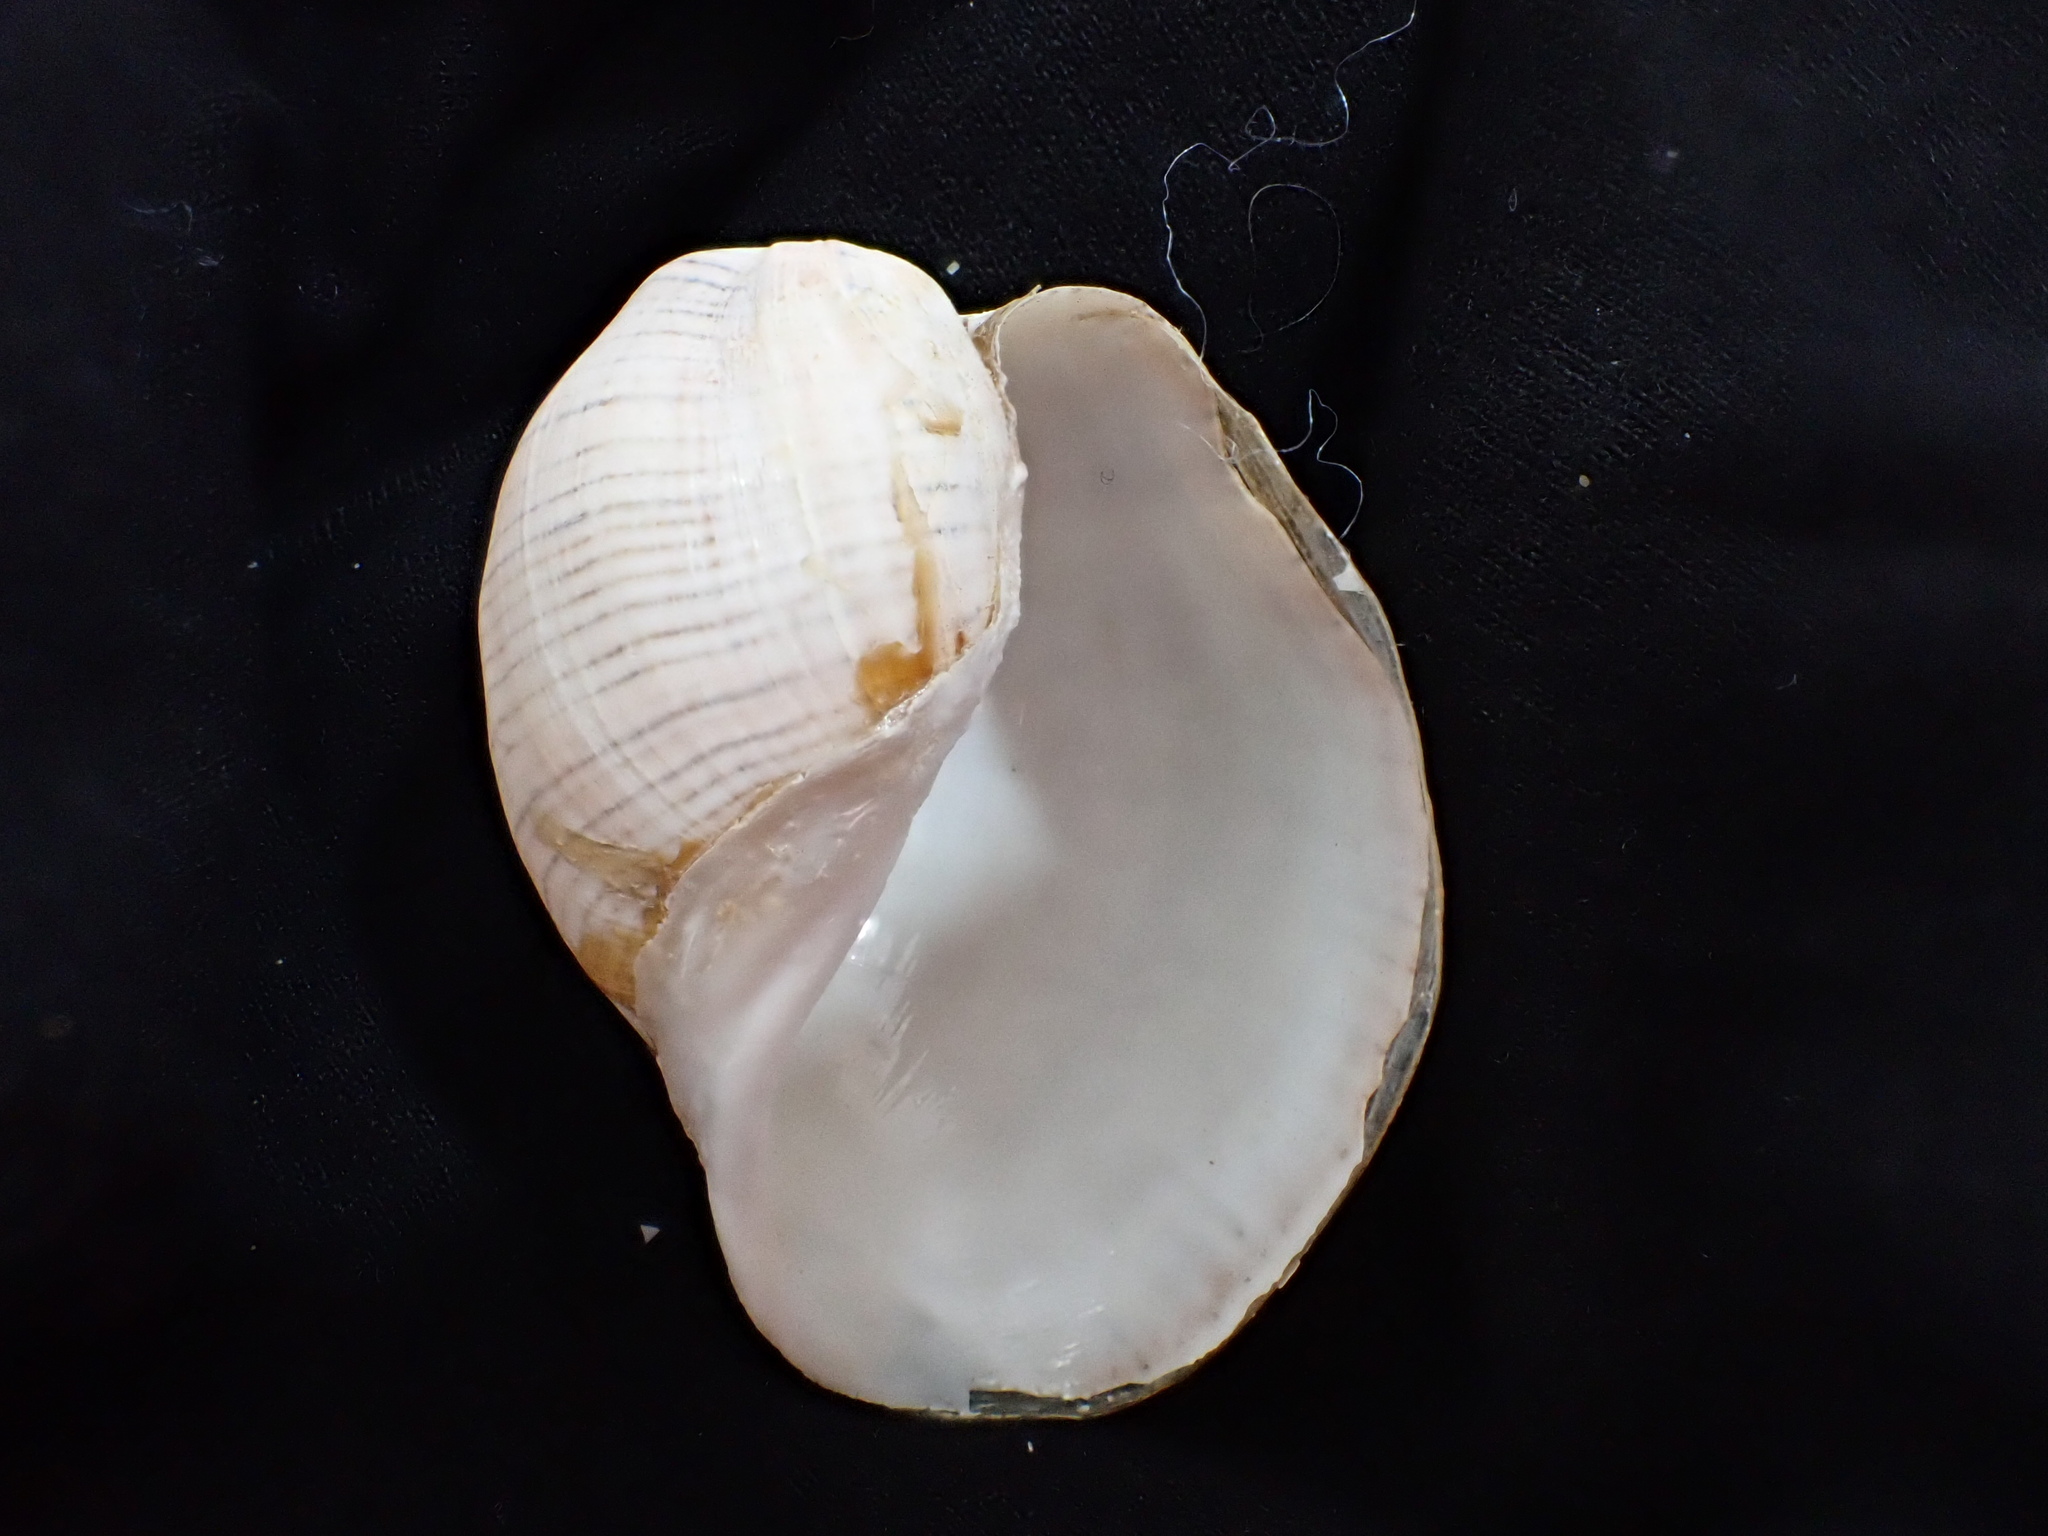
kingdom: Animalia
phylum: Mollusca
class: Gastropoda
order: Cephalaspidea
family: Aplustridae
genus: Hydatina
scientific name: Hydatina physis
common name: Brown-line paperbubble
